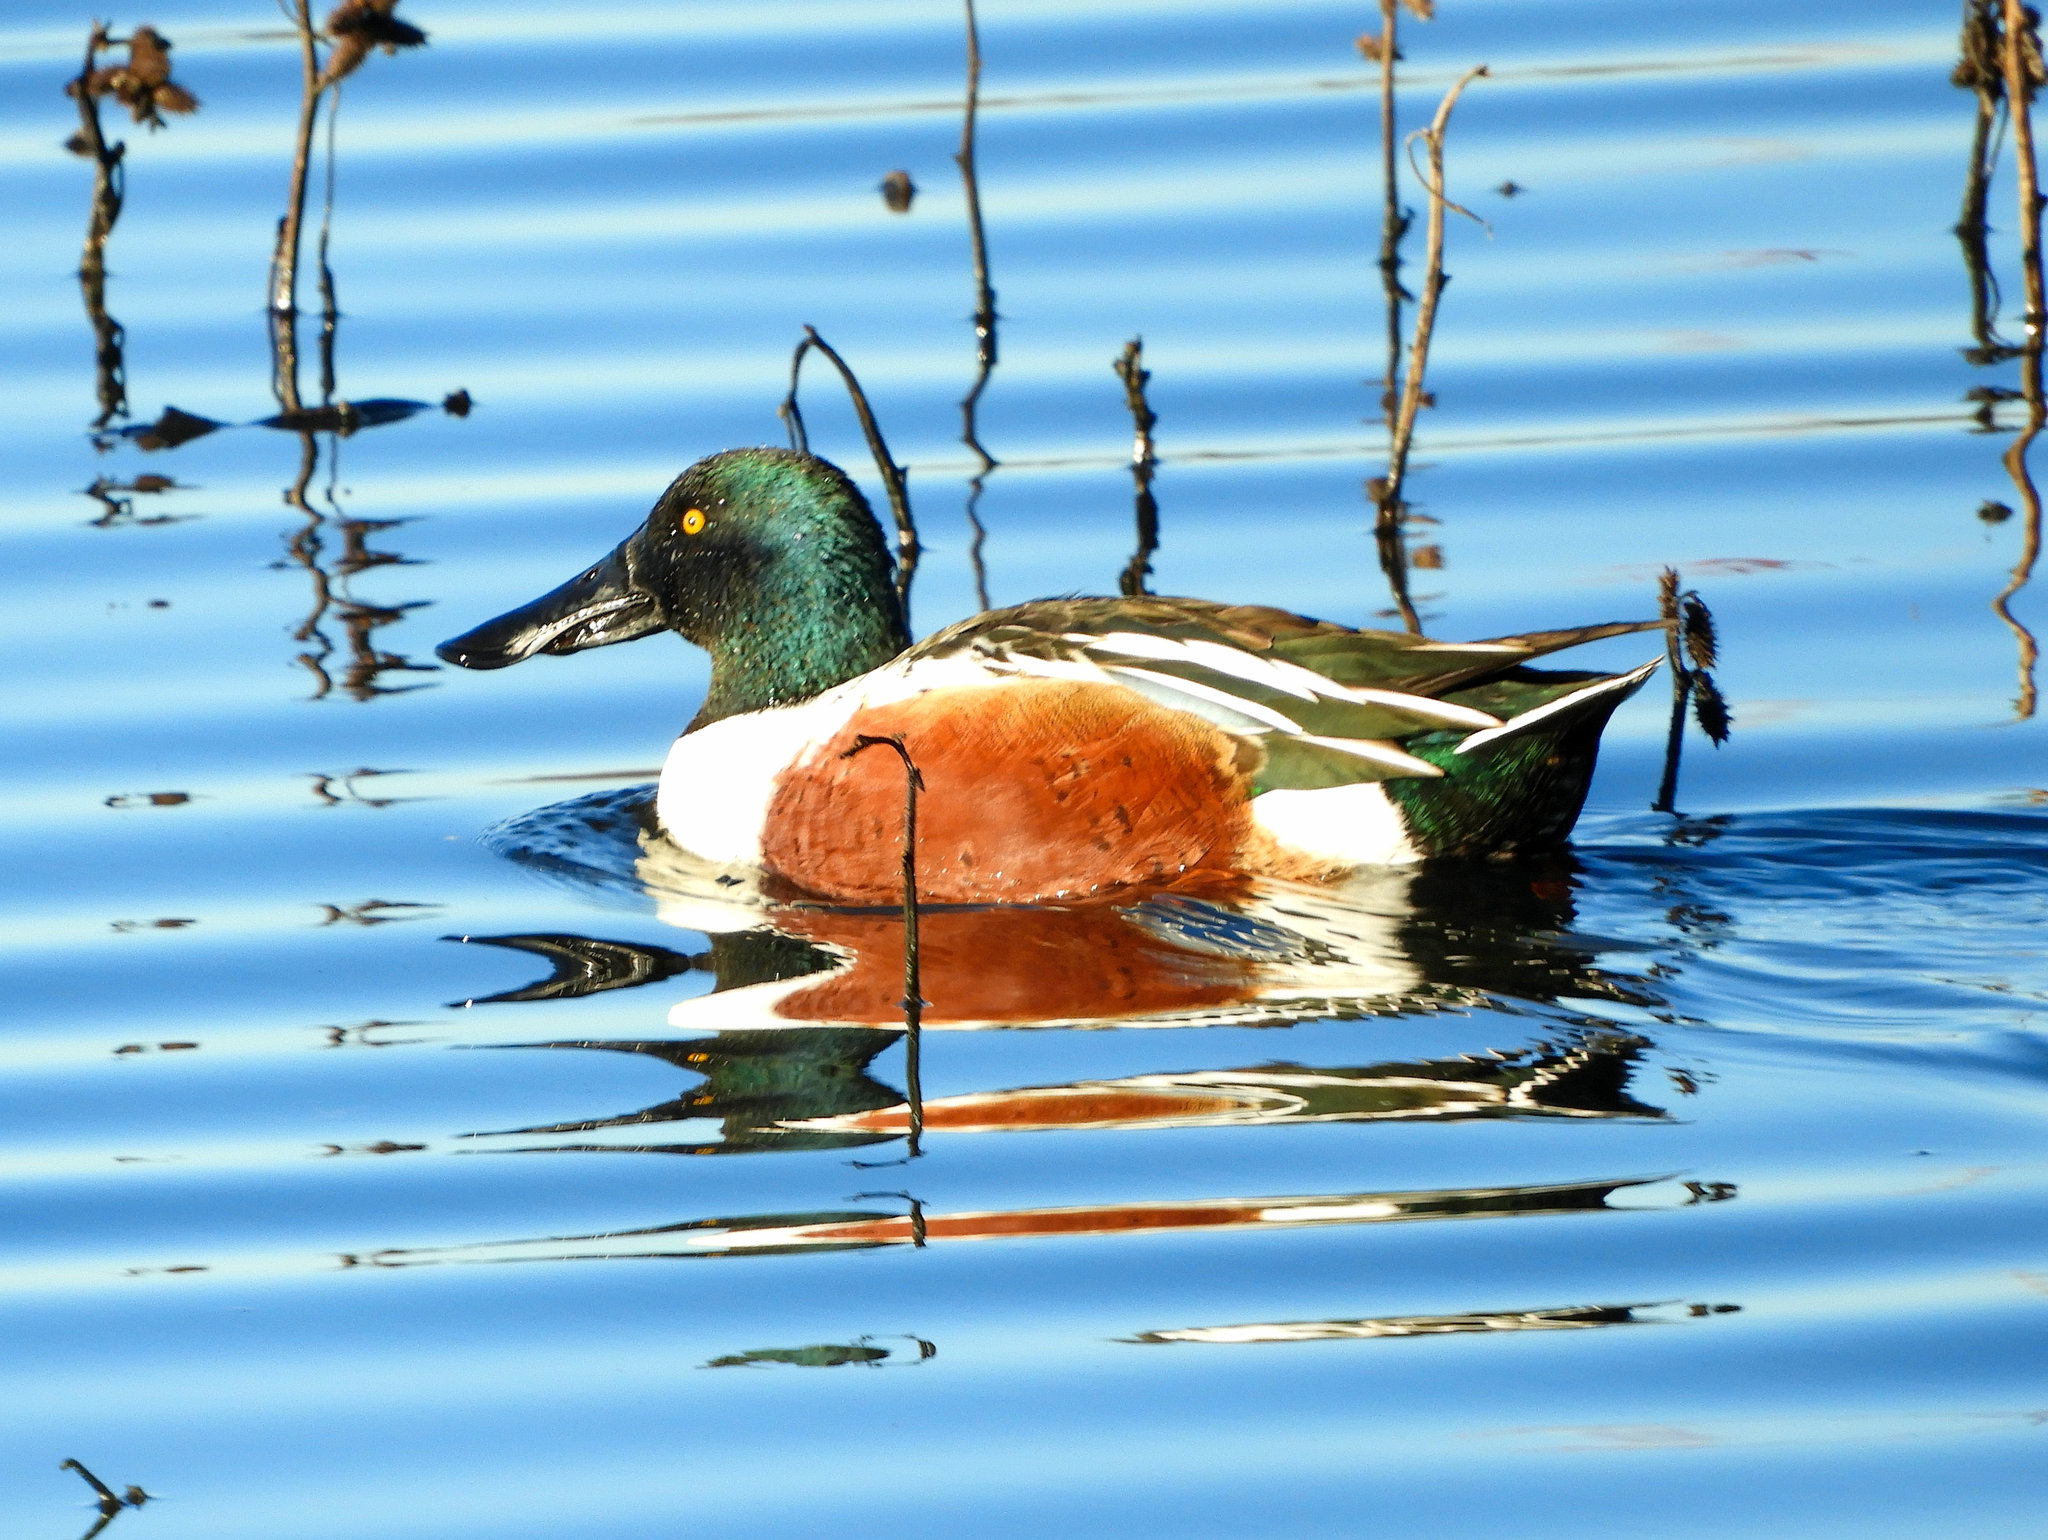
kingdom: Animalia
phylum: Chordata
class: Aves
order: Anseriformes
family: Anatidae
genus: Spatula
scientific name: Spatula clypeata
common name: Northern shoveler
